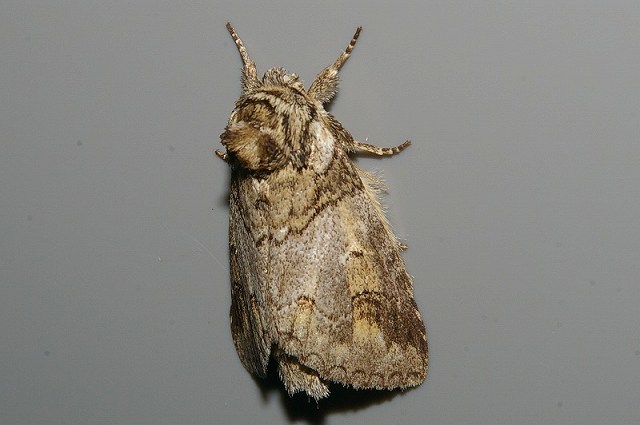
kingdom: Animalia
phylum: Arthropoda
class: Insecta
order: Lepidoptera
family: Notodontidae
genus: Neodrymonia
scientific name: Neodrymonia delia
